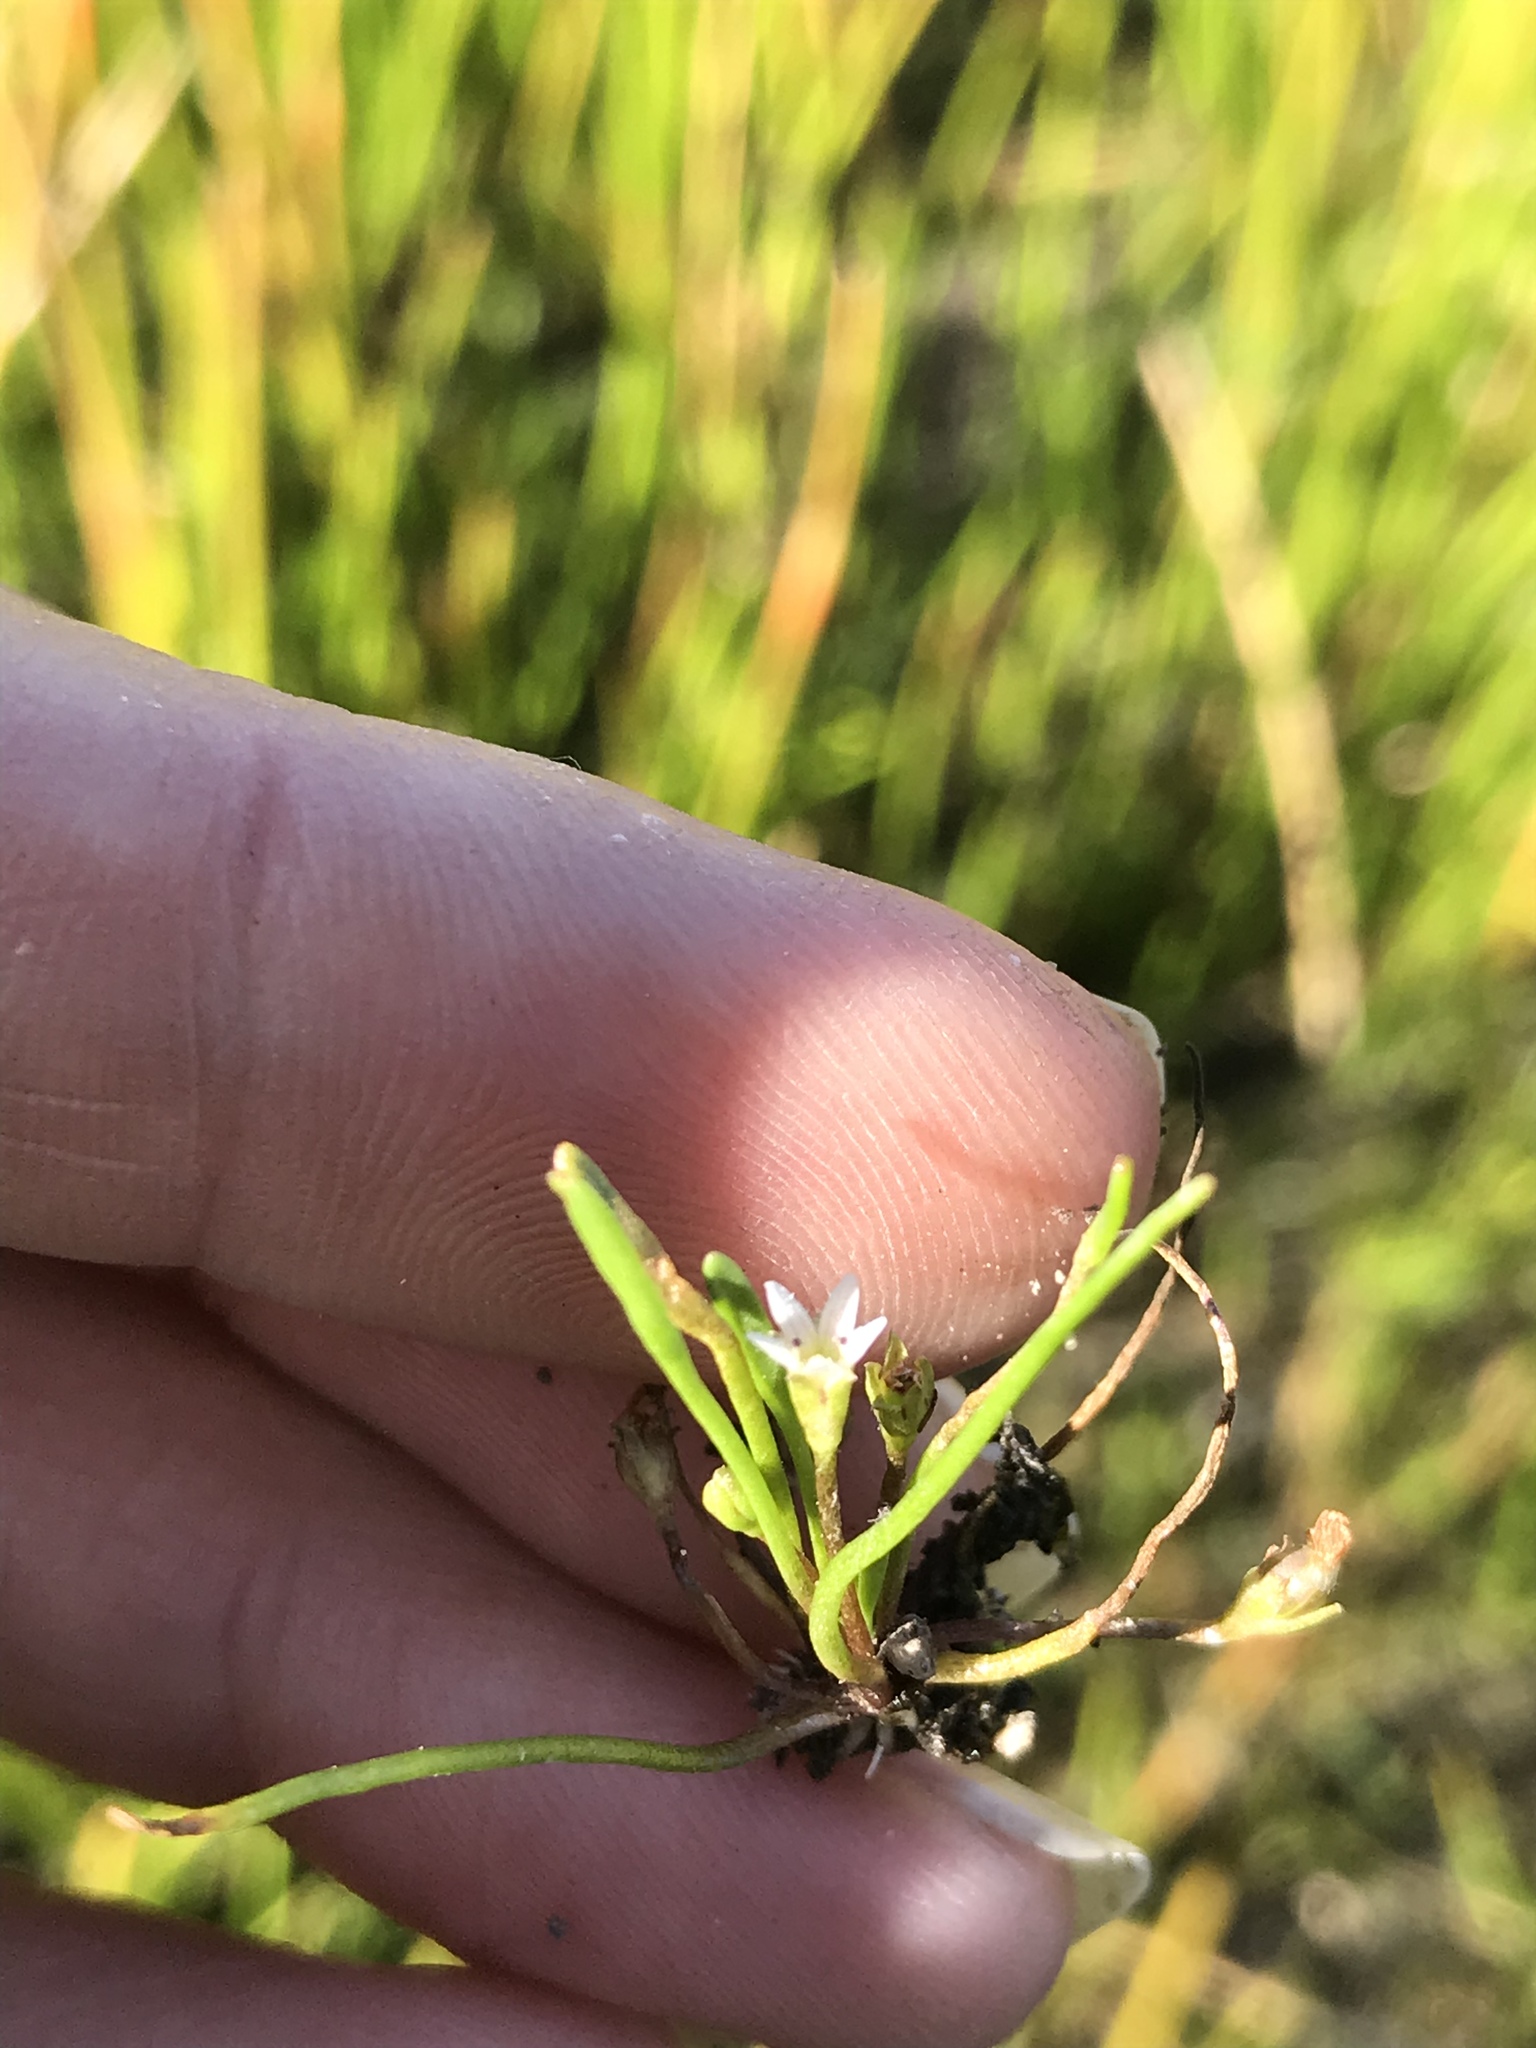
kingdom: Plantae
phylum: Tracheophyta
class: Magnoliopsida
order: Lamiales
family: Scrophulariaceae
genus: Limosella
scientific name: Limosella acaulis
